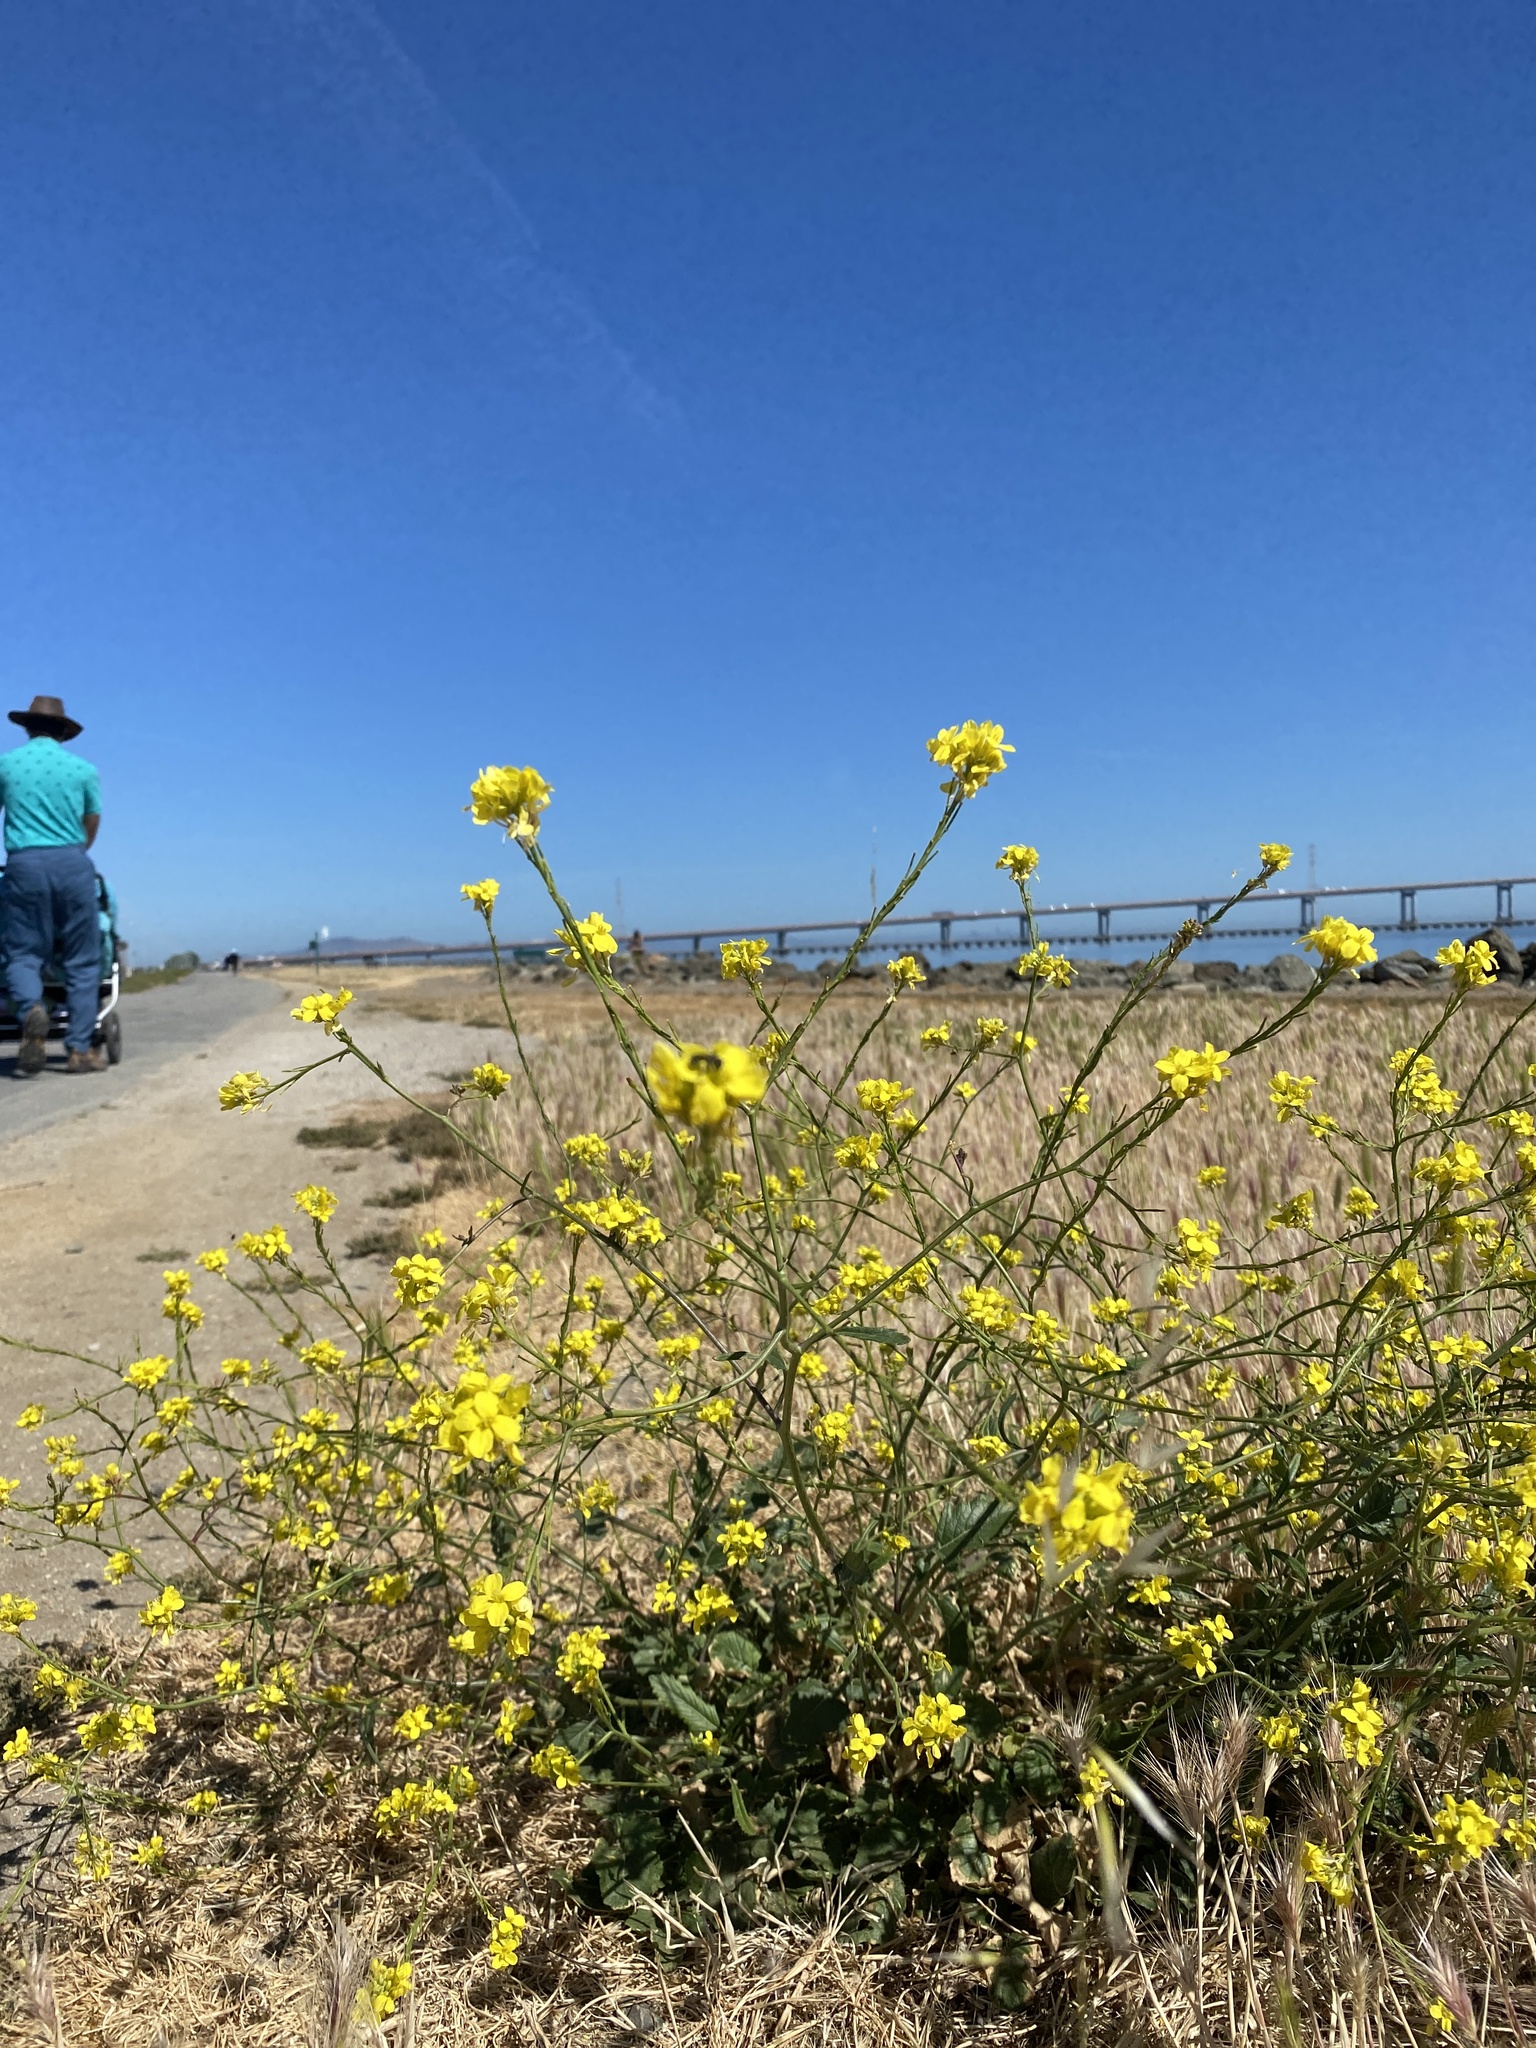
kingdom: Plantae
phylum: Tracheophyta
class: Magnoliopsida
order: Brassicales
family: Brassicaceae
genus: Hirschfeldia
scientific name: Hirschfeldia incana
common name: Hoary mustard
